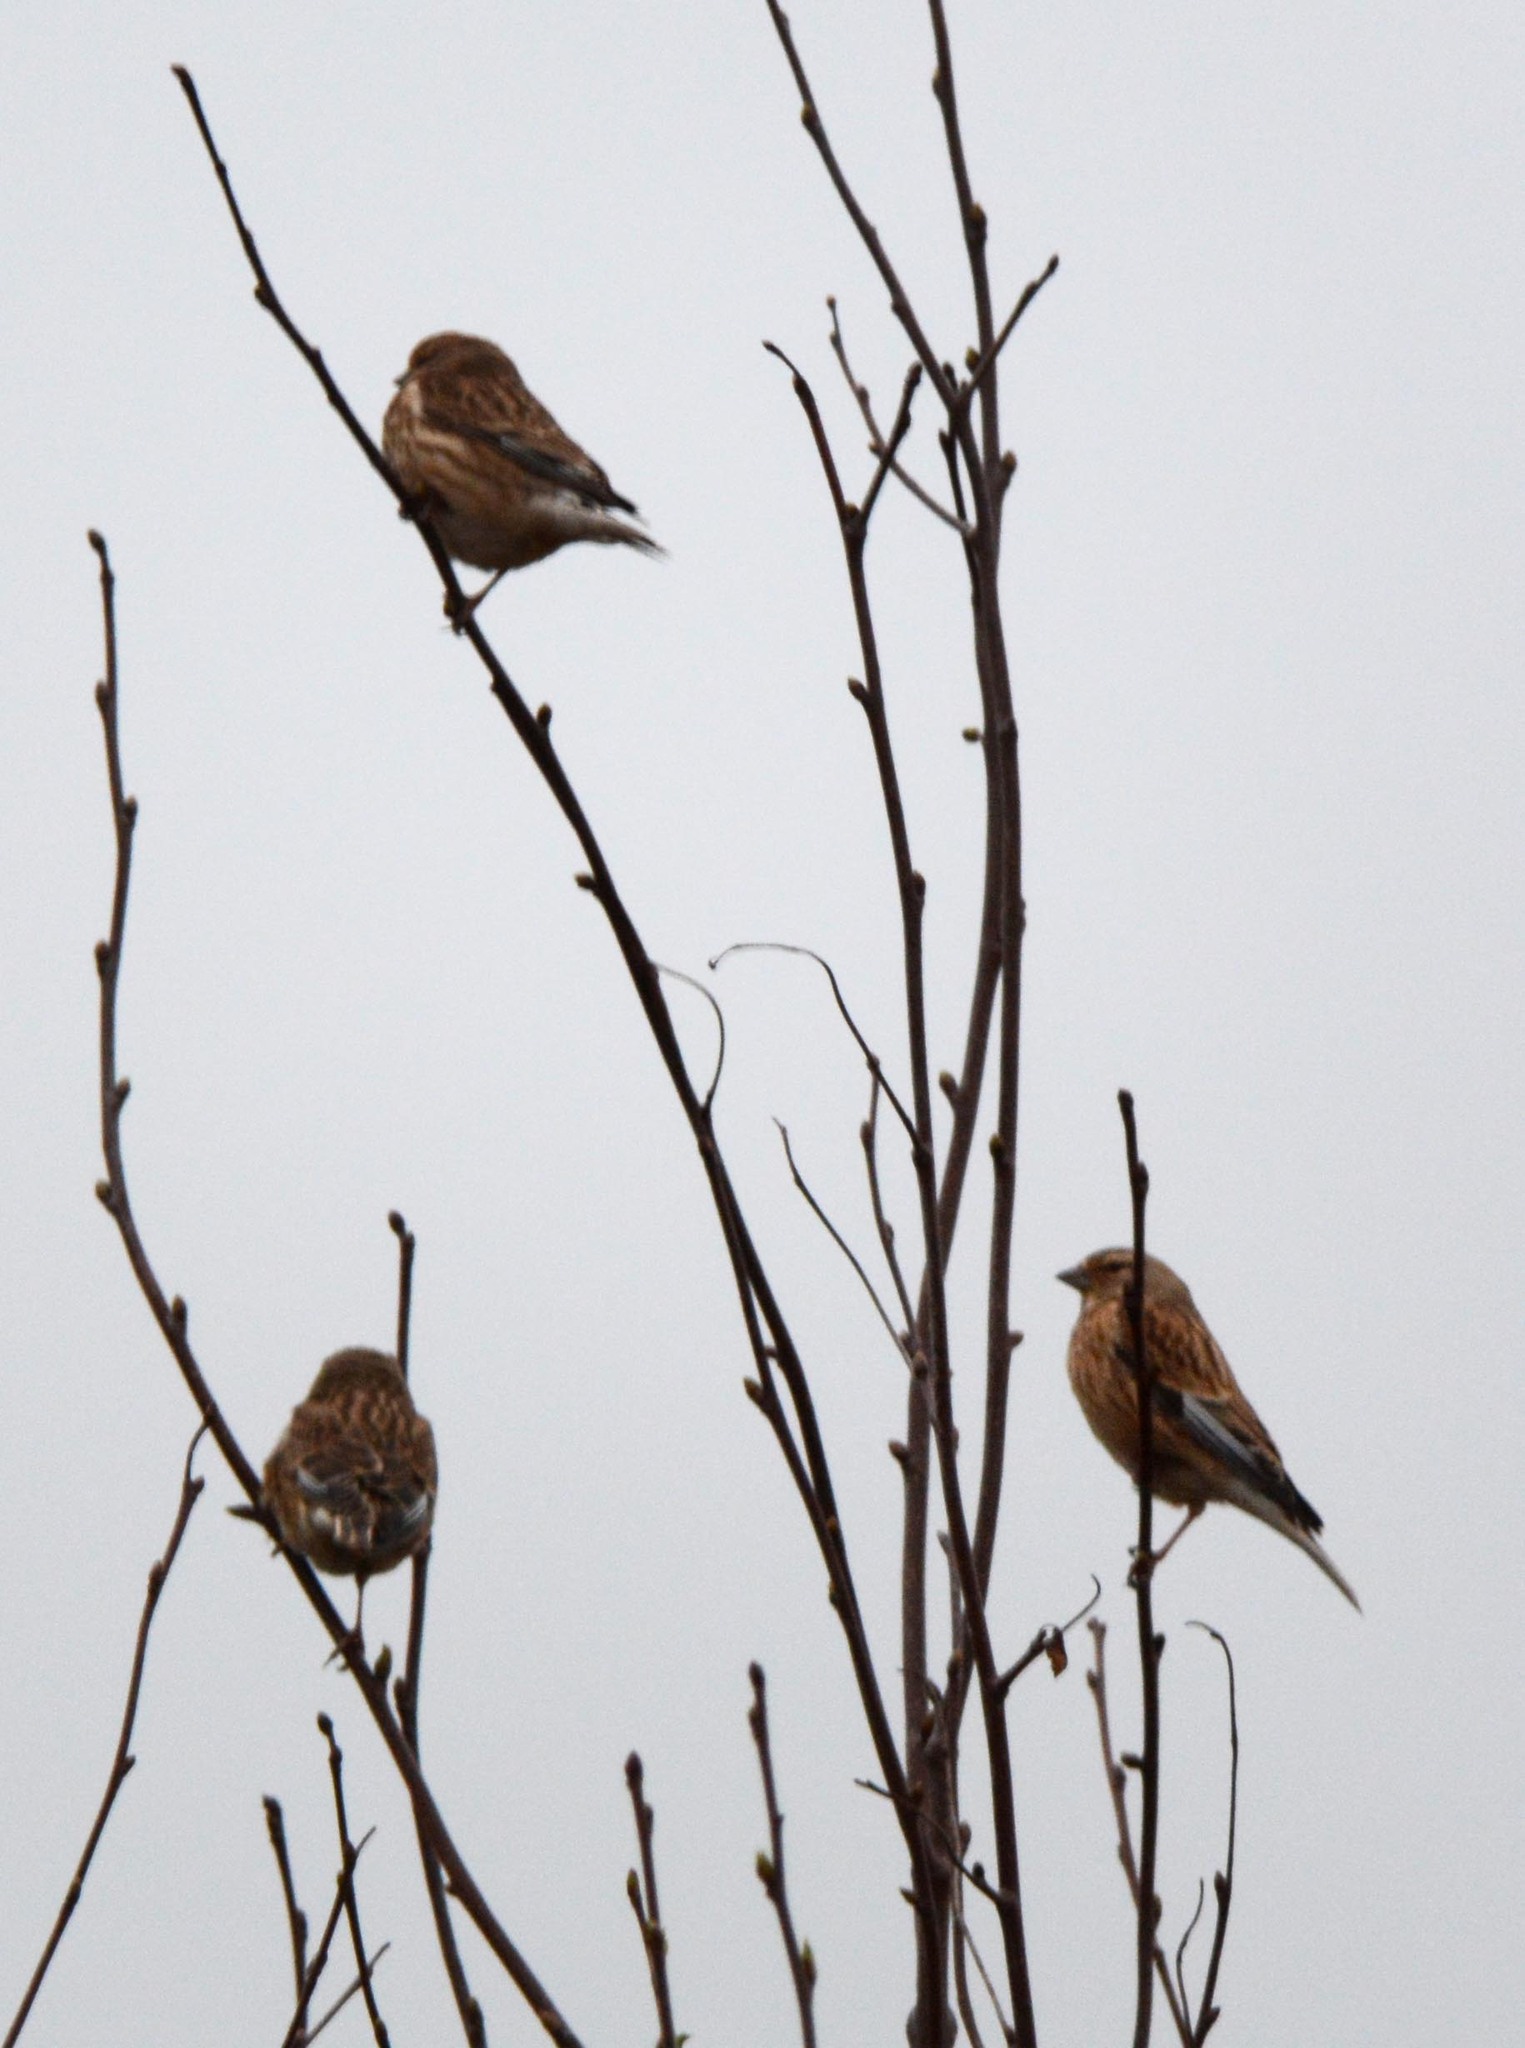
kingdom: Animalia
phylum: Chordata
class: Aves
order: Passeriformes
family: Fringillidae
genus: Linaria
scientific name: Linaria cannabina
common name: Common linnet
